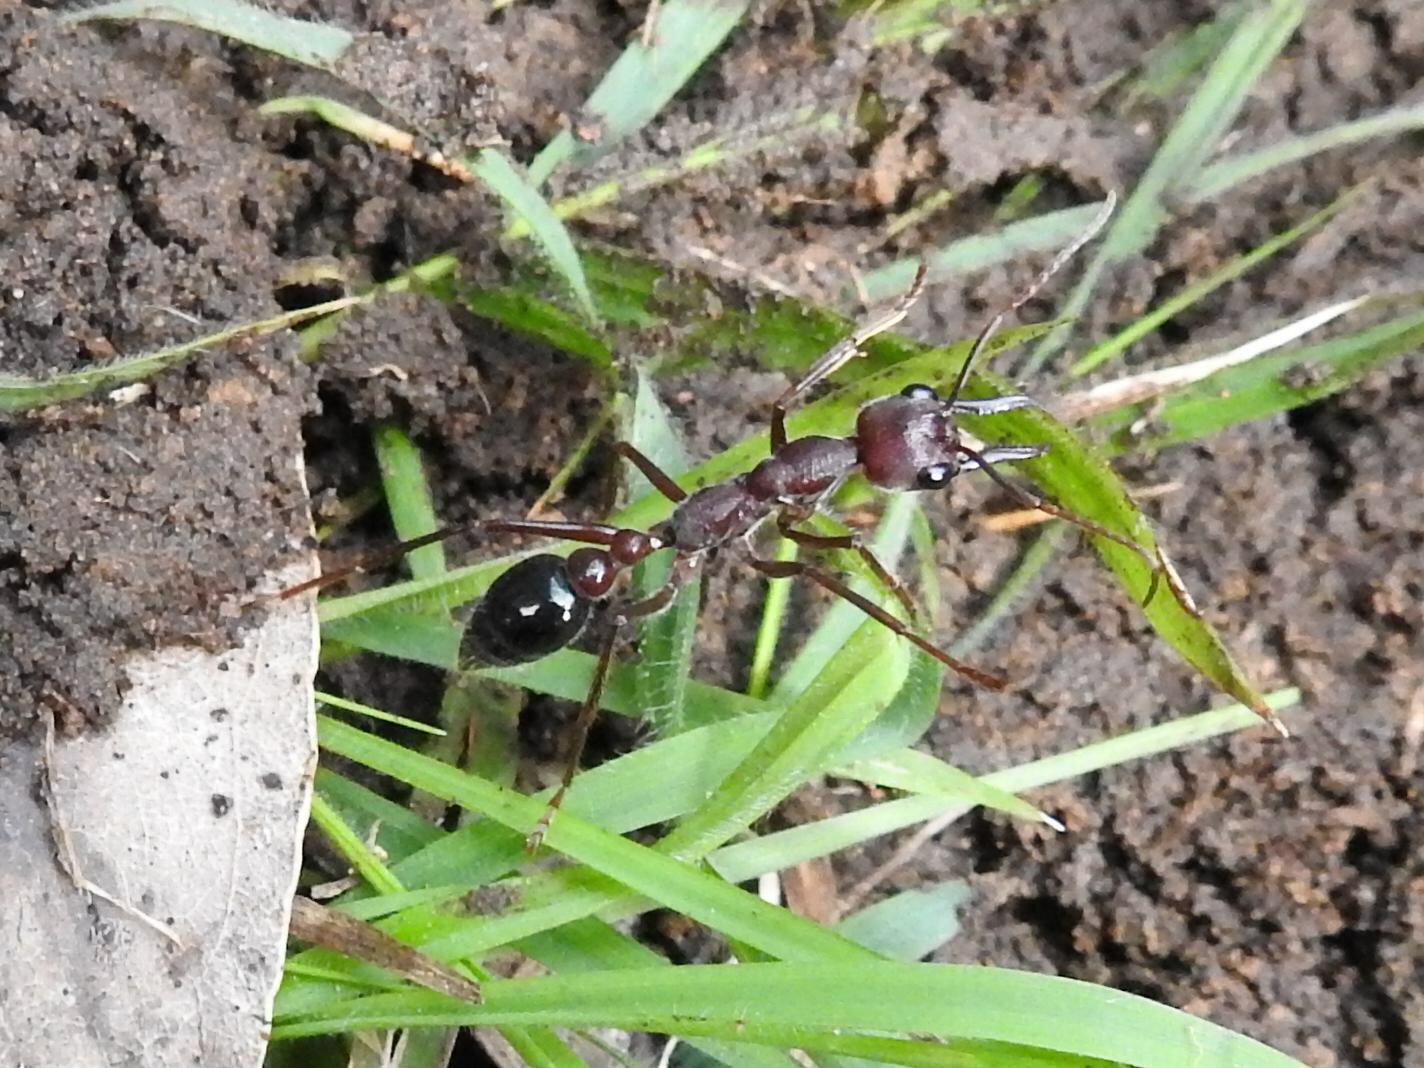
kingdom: Animalia
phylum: Arthropoda
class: Insecta
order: Hymenoptera
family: Formicidae
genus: Myrmecia
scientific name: Myrmecia forficata
